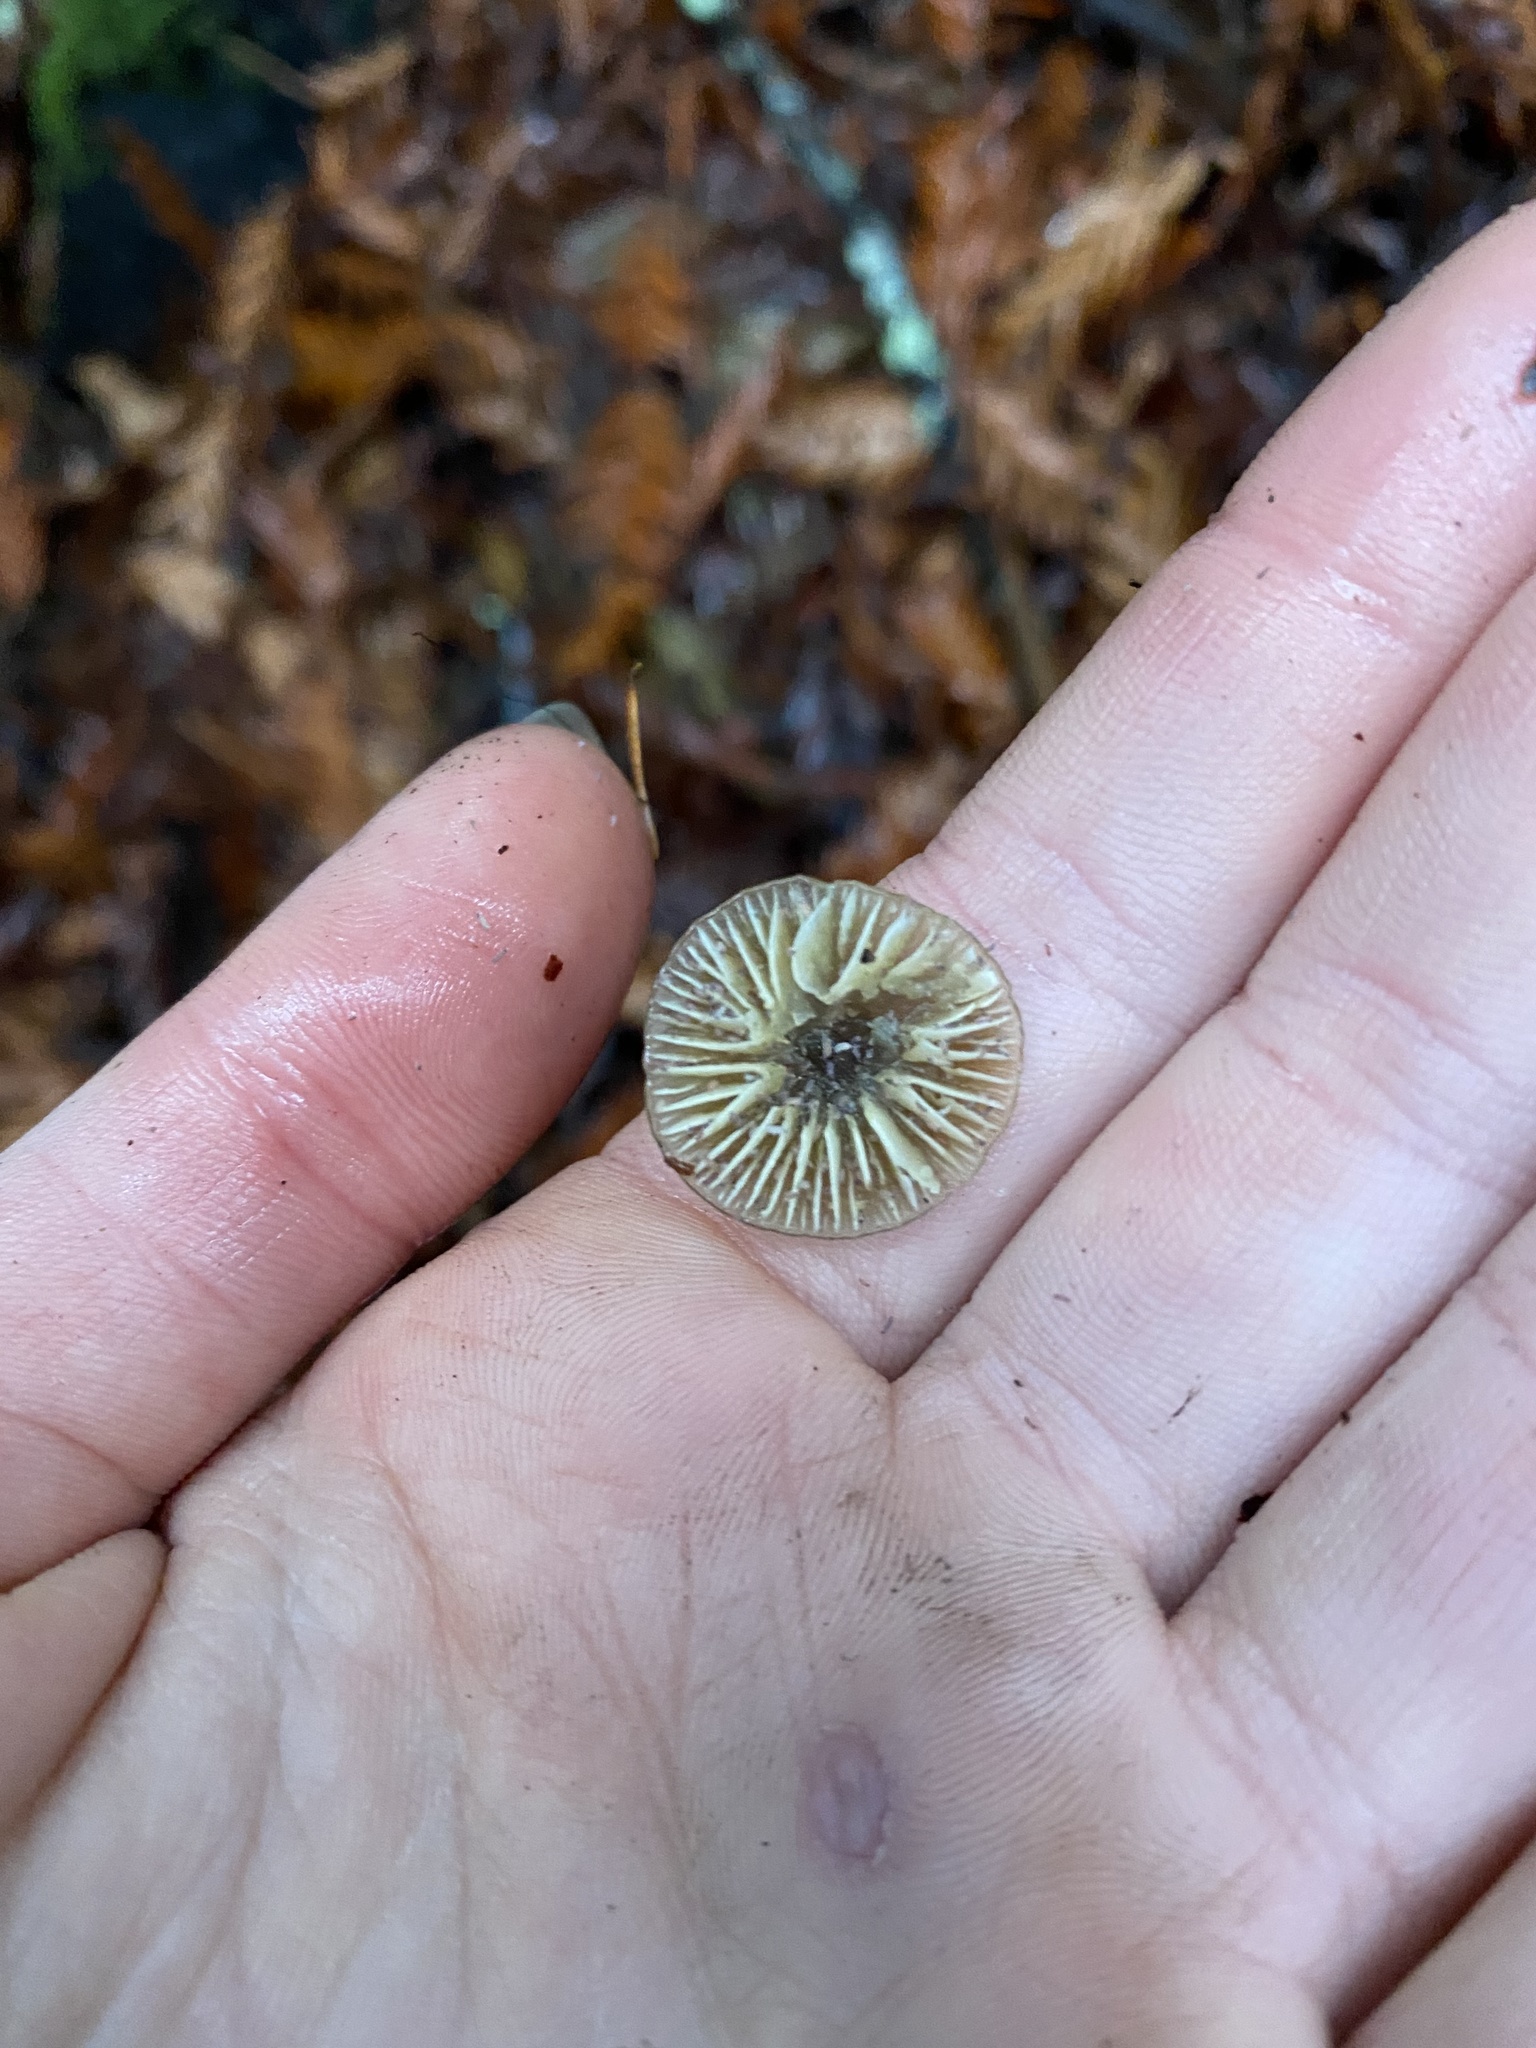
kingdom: Fungi
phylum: Basidiomycota
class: Agaricomycetes
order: Agaricales
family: Hygrophoraceae
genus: Gliophorus
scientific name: Gliophorus psittacinus
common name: Parrot wax-cap
